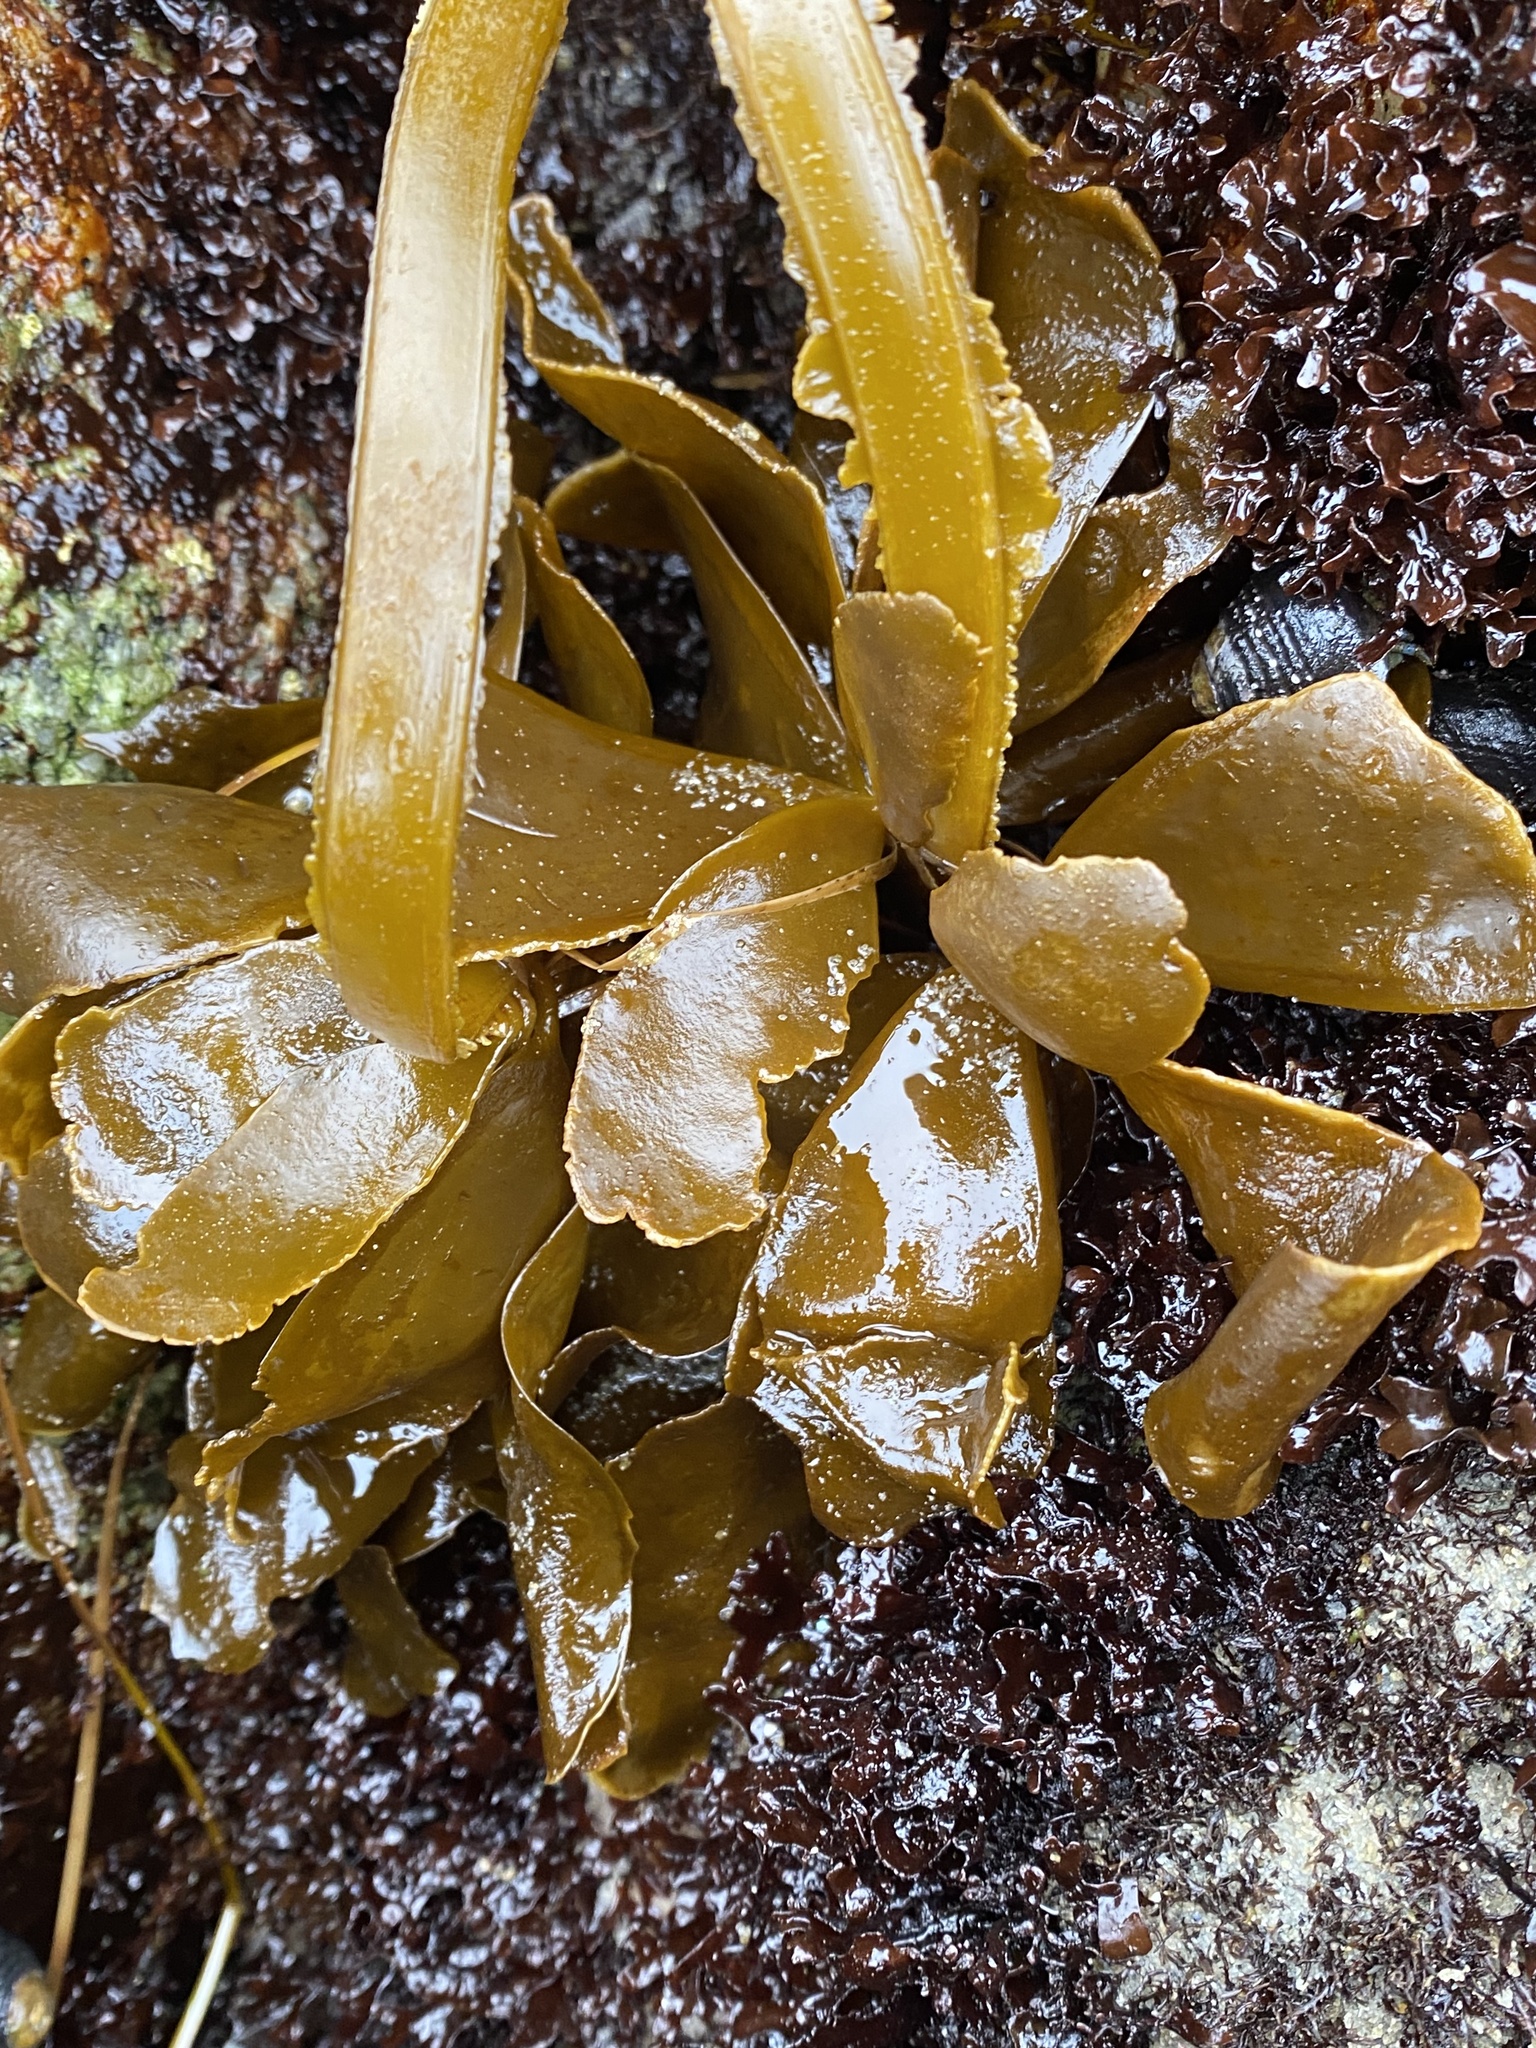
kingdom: Chromista
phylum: Ochrophyta
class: Phaeophyceae
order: Laminariales
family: Alariaceae
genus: Alaria
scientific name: Alaria marginata
